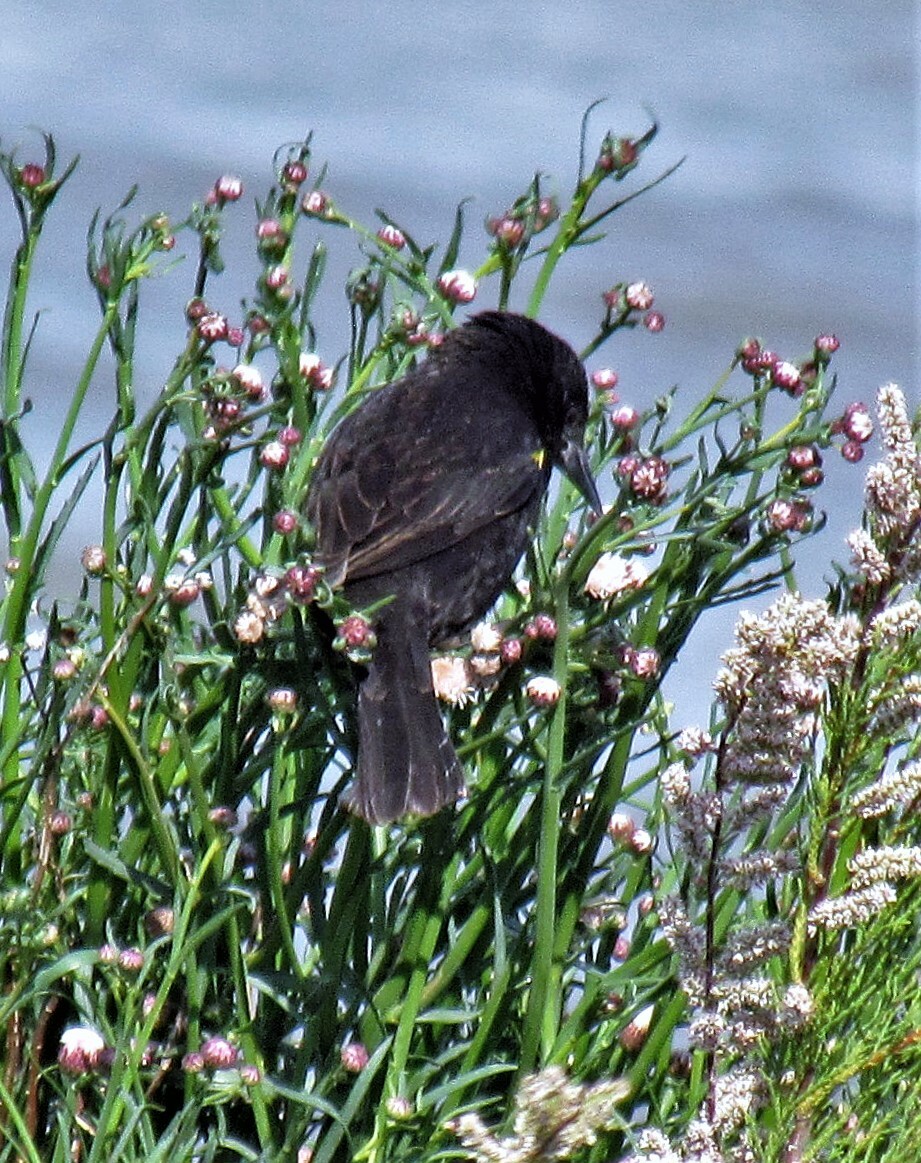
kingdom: Animalia
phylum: Chordata
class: Aves
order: Passeriformes
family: Icteridae
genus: Agelasticus
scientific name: Agelasticus thilius
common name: Yellow-winged blackbird
